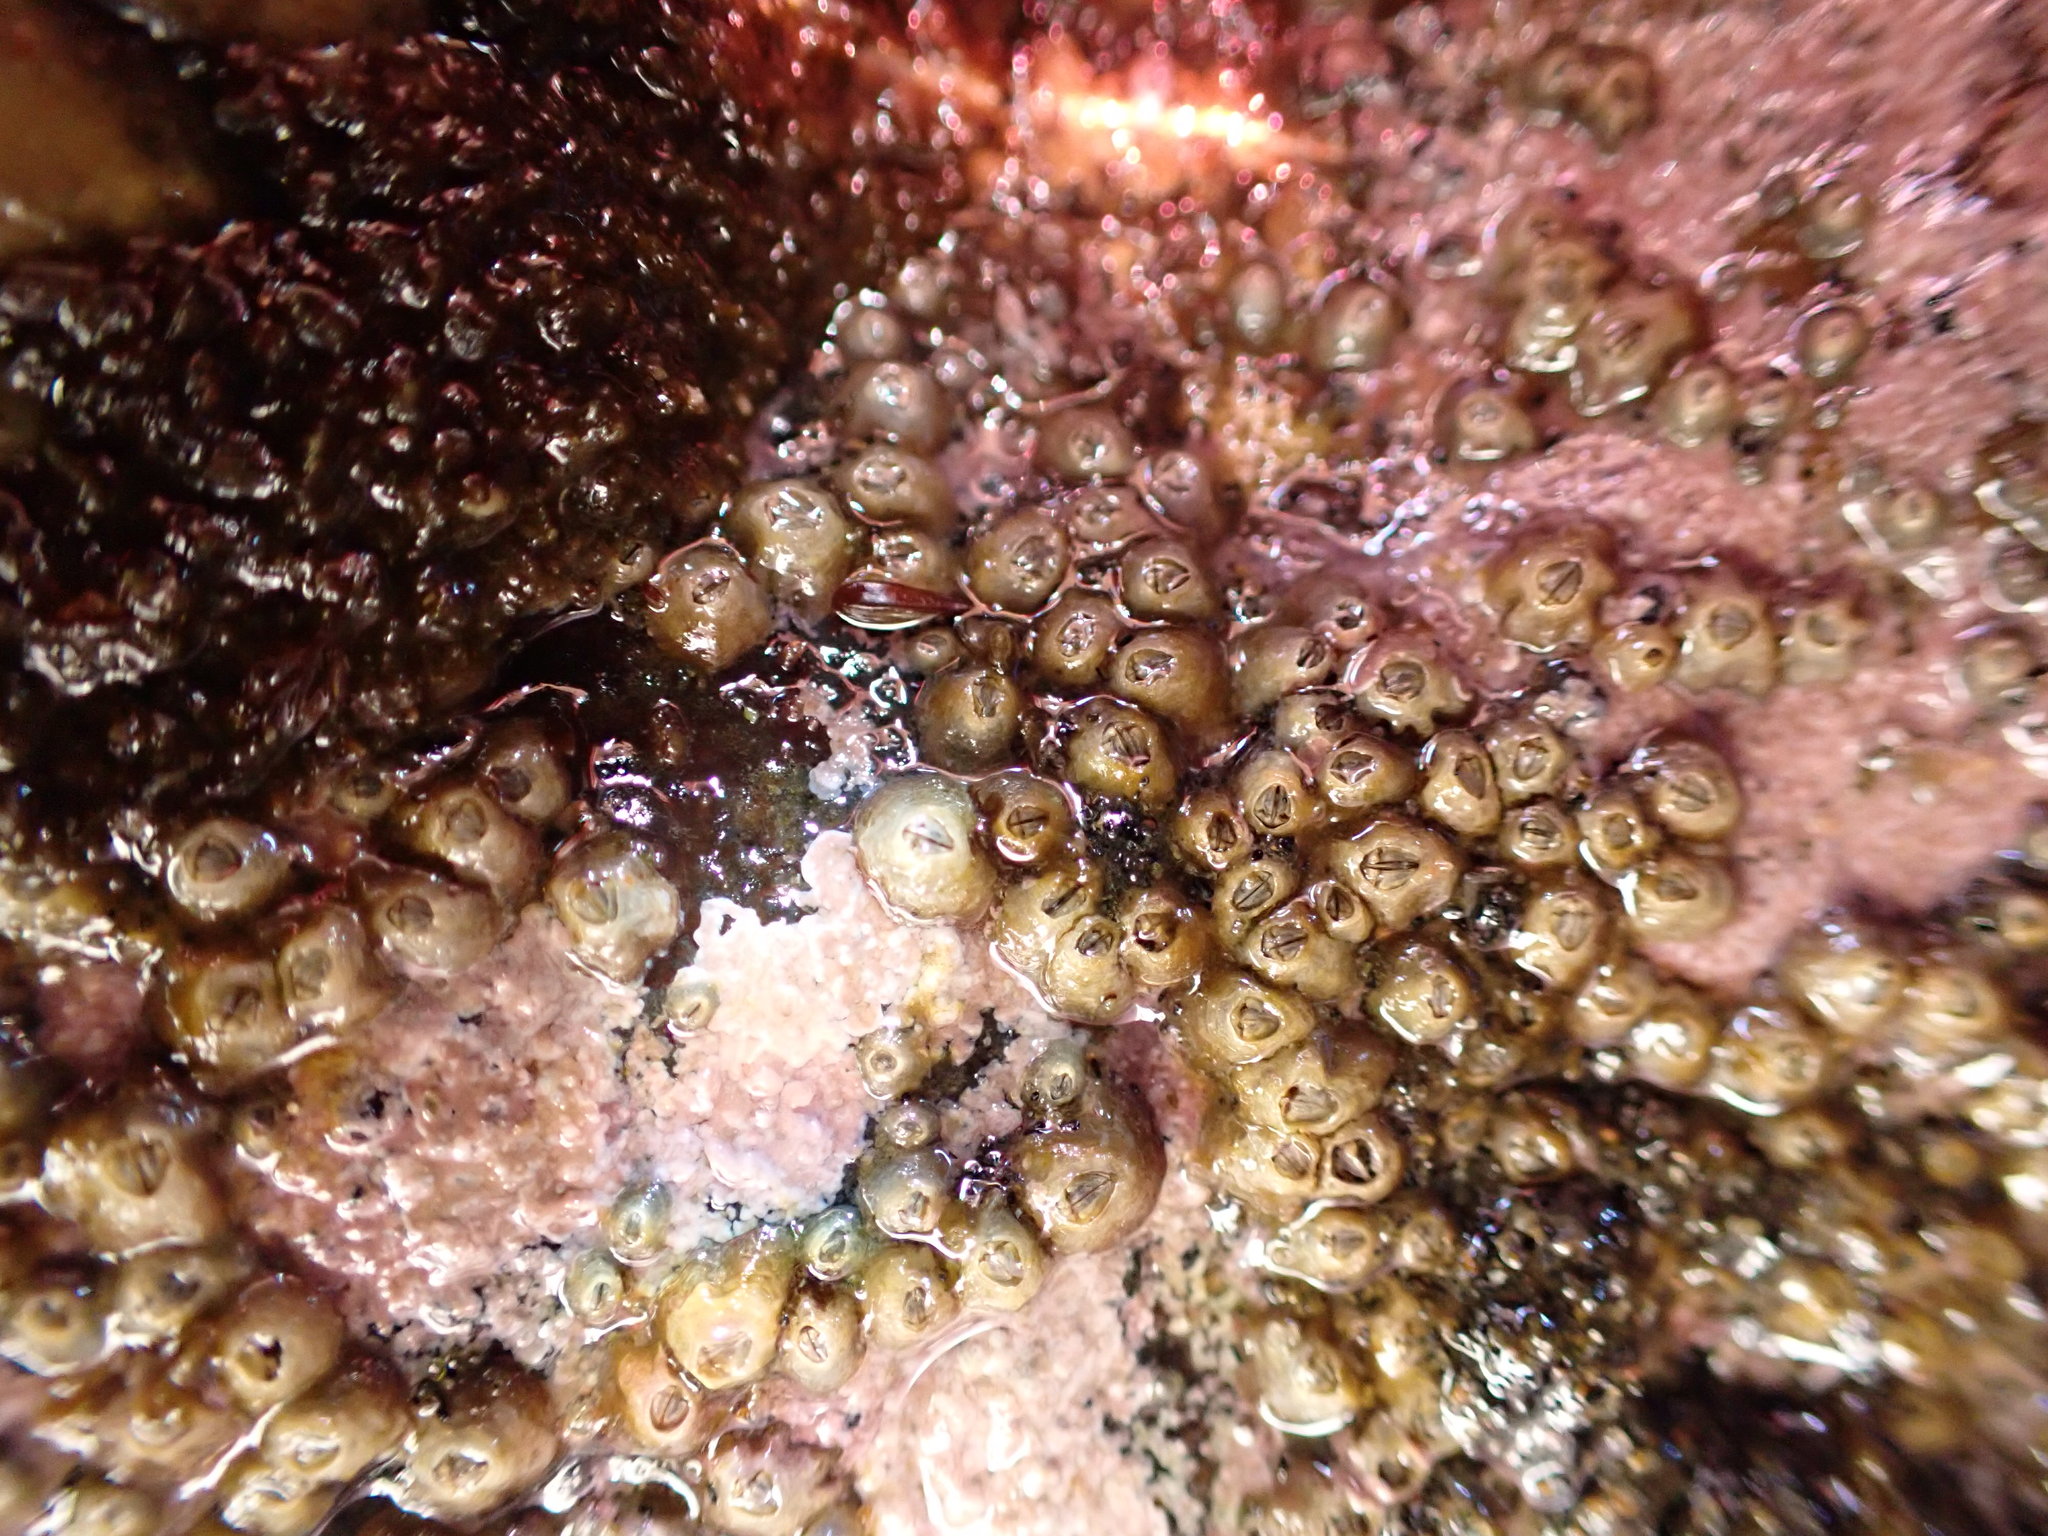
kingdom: Animalia
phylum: Arthropoda
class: Maxillopoda
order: Sessilia
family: Chthamalidae
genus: Chamaesipho
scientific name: Chamaesipho columna
